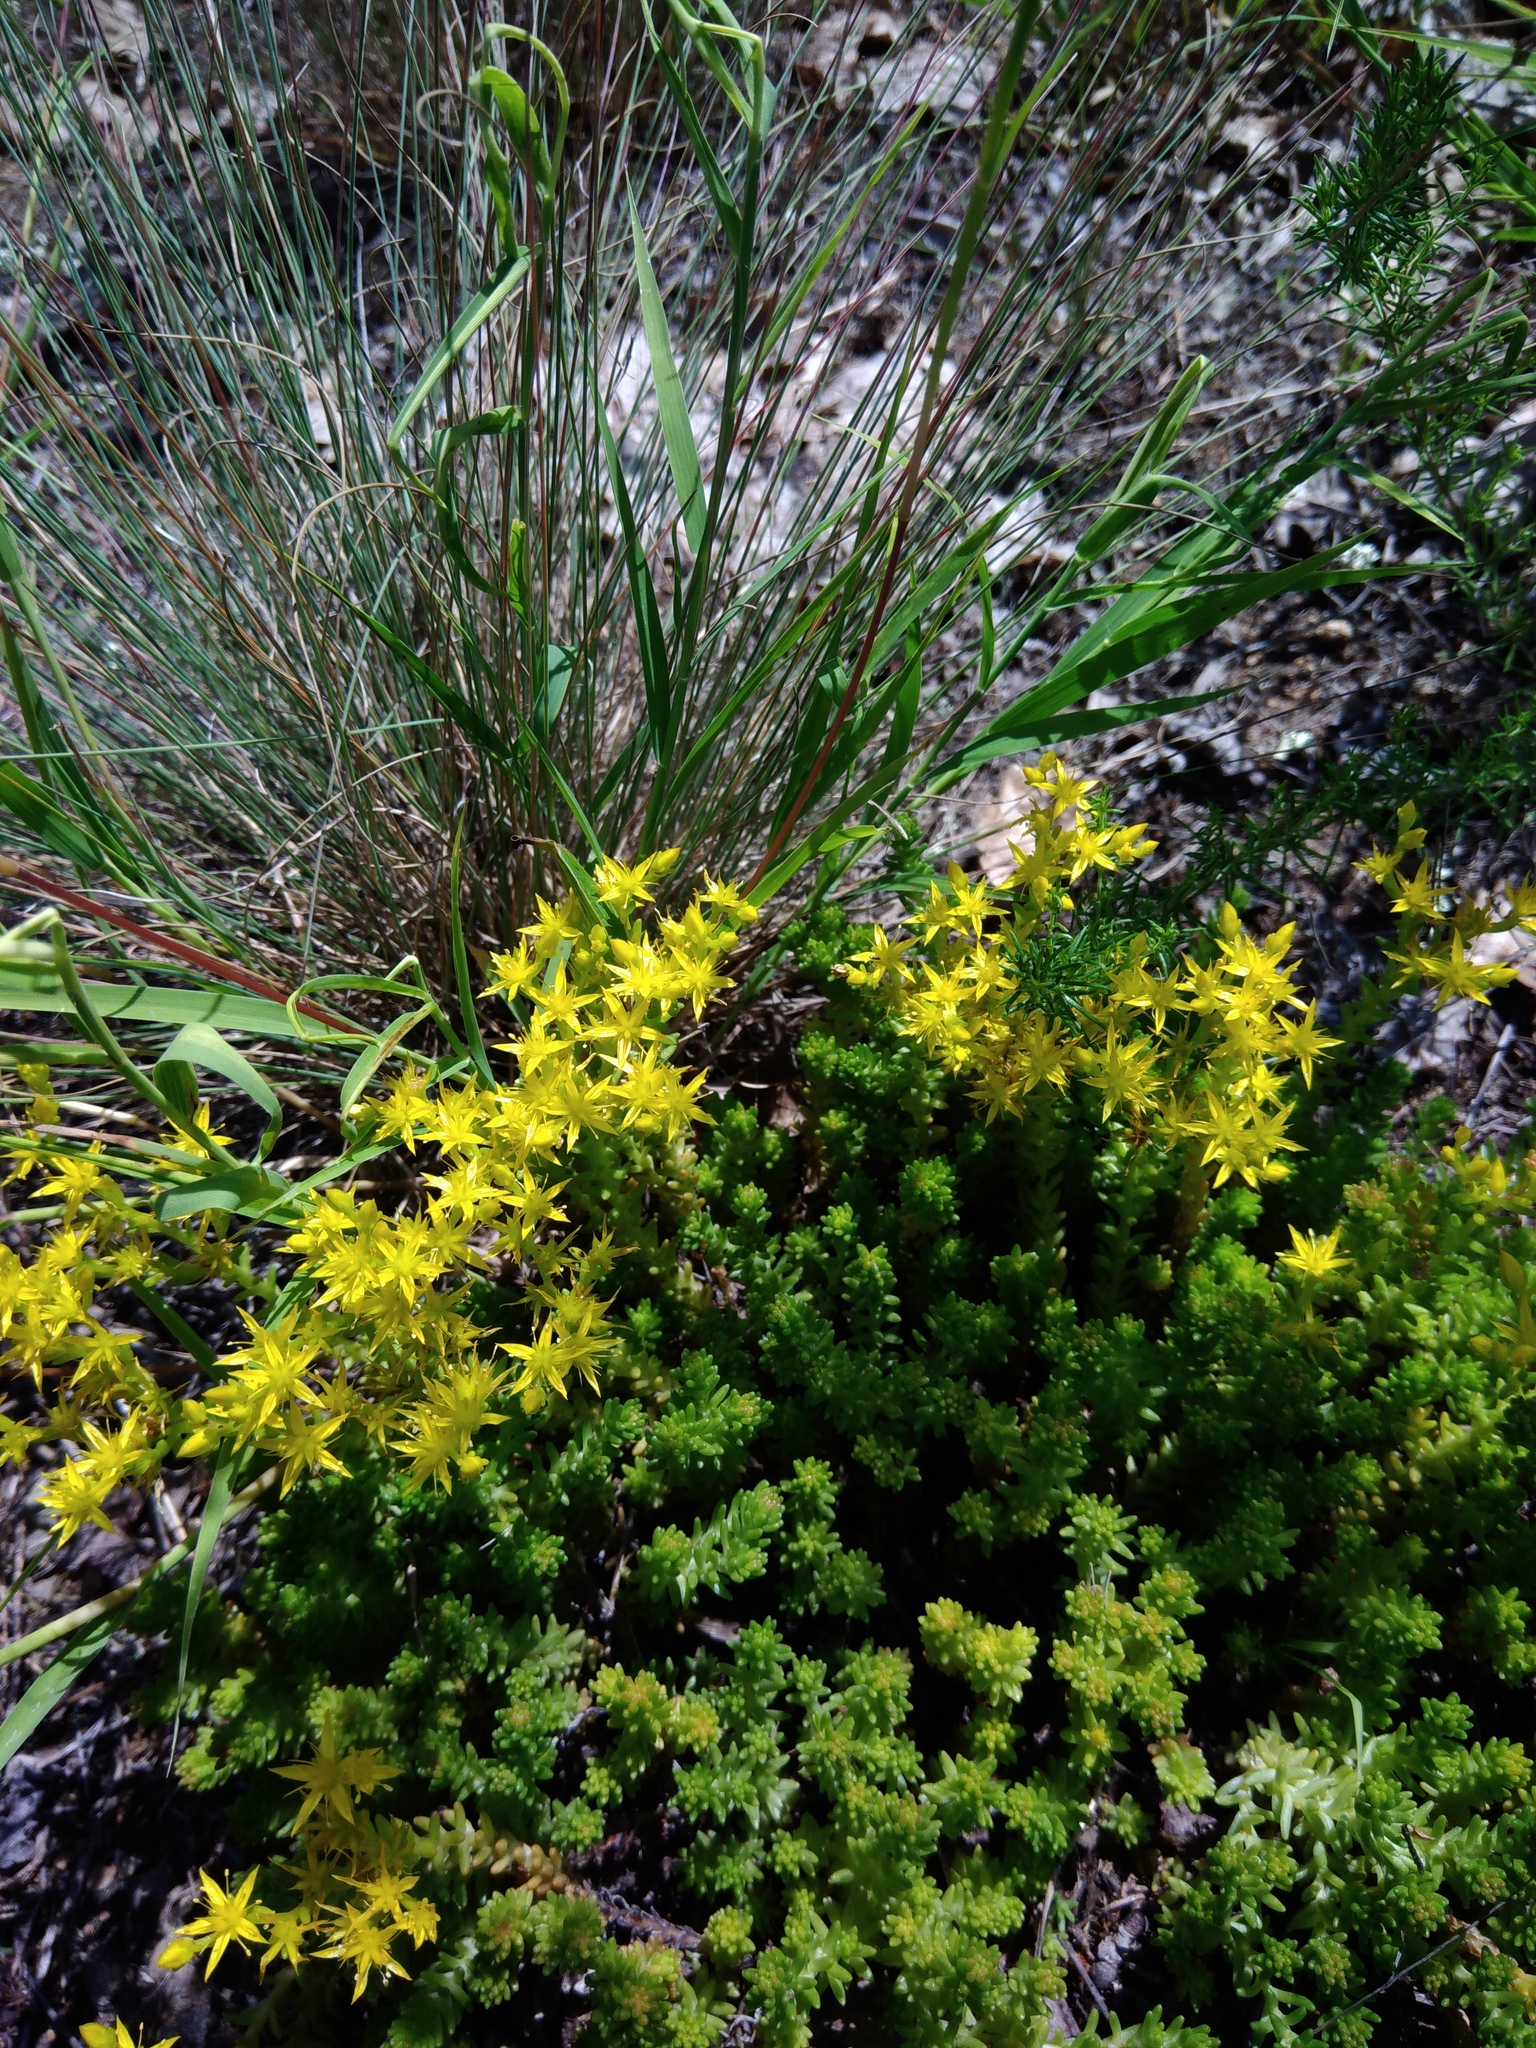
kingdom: Plantae
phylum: Tracheophyta
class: Magnoliopsida
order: Saxifragales
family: Crassulaceae
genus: Sedum
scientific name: Sedum sexangulare
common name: Tasteless stonecrop
